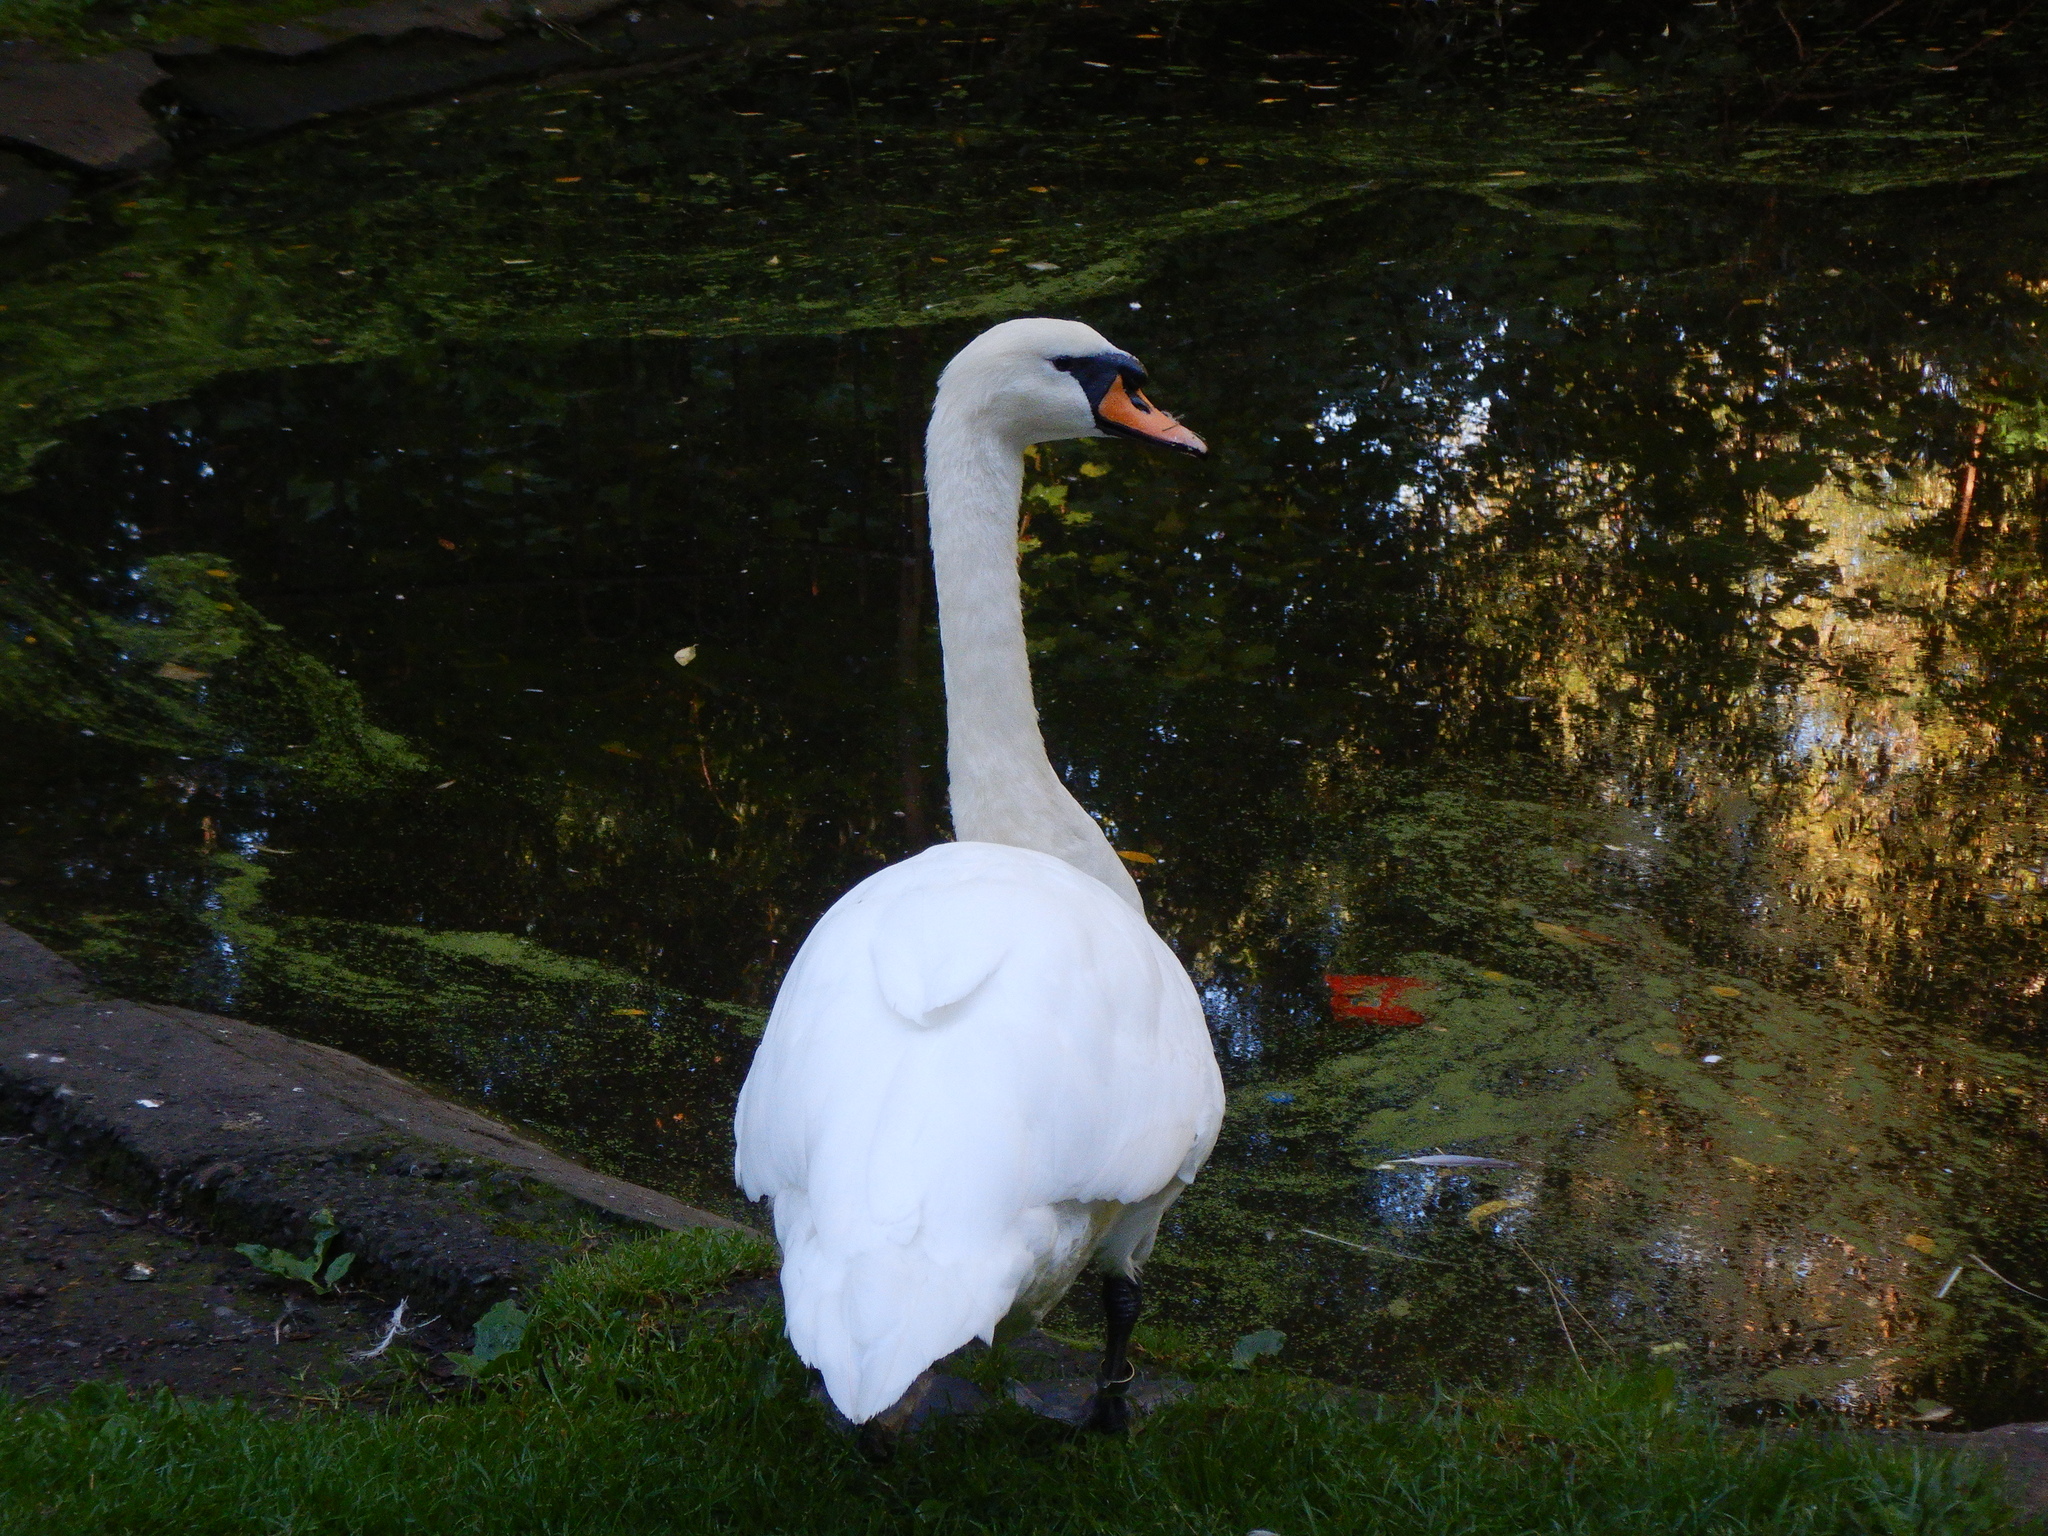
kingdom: Animalia
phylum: Chordata
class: Aves
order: Anseriformes
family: Anatidae
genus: Cygnus
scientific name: Cygnus olor
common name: Mute swan
